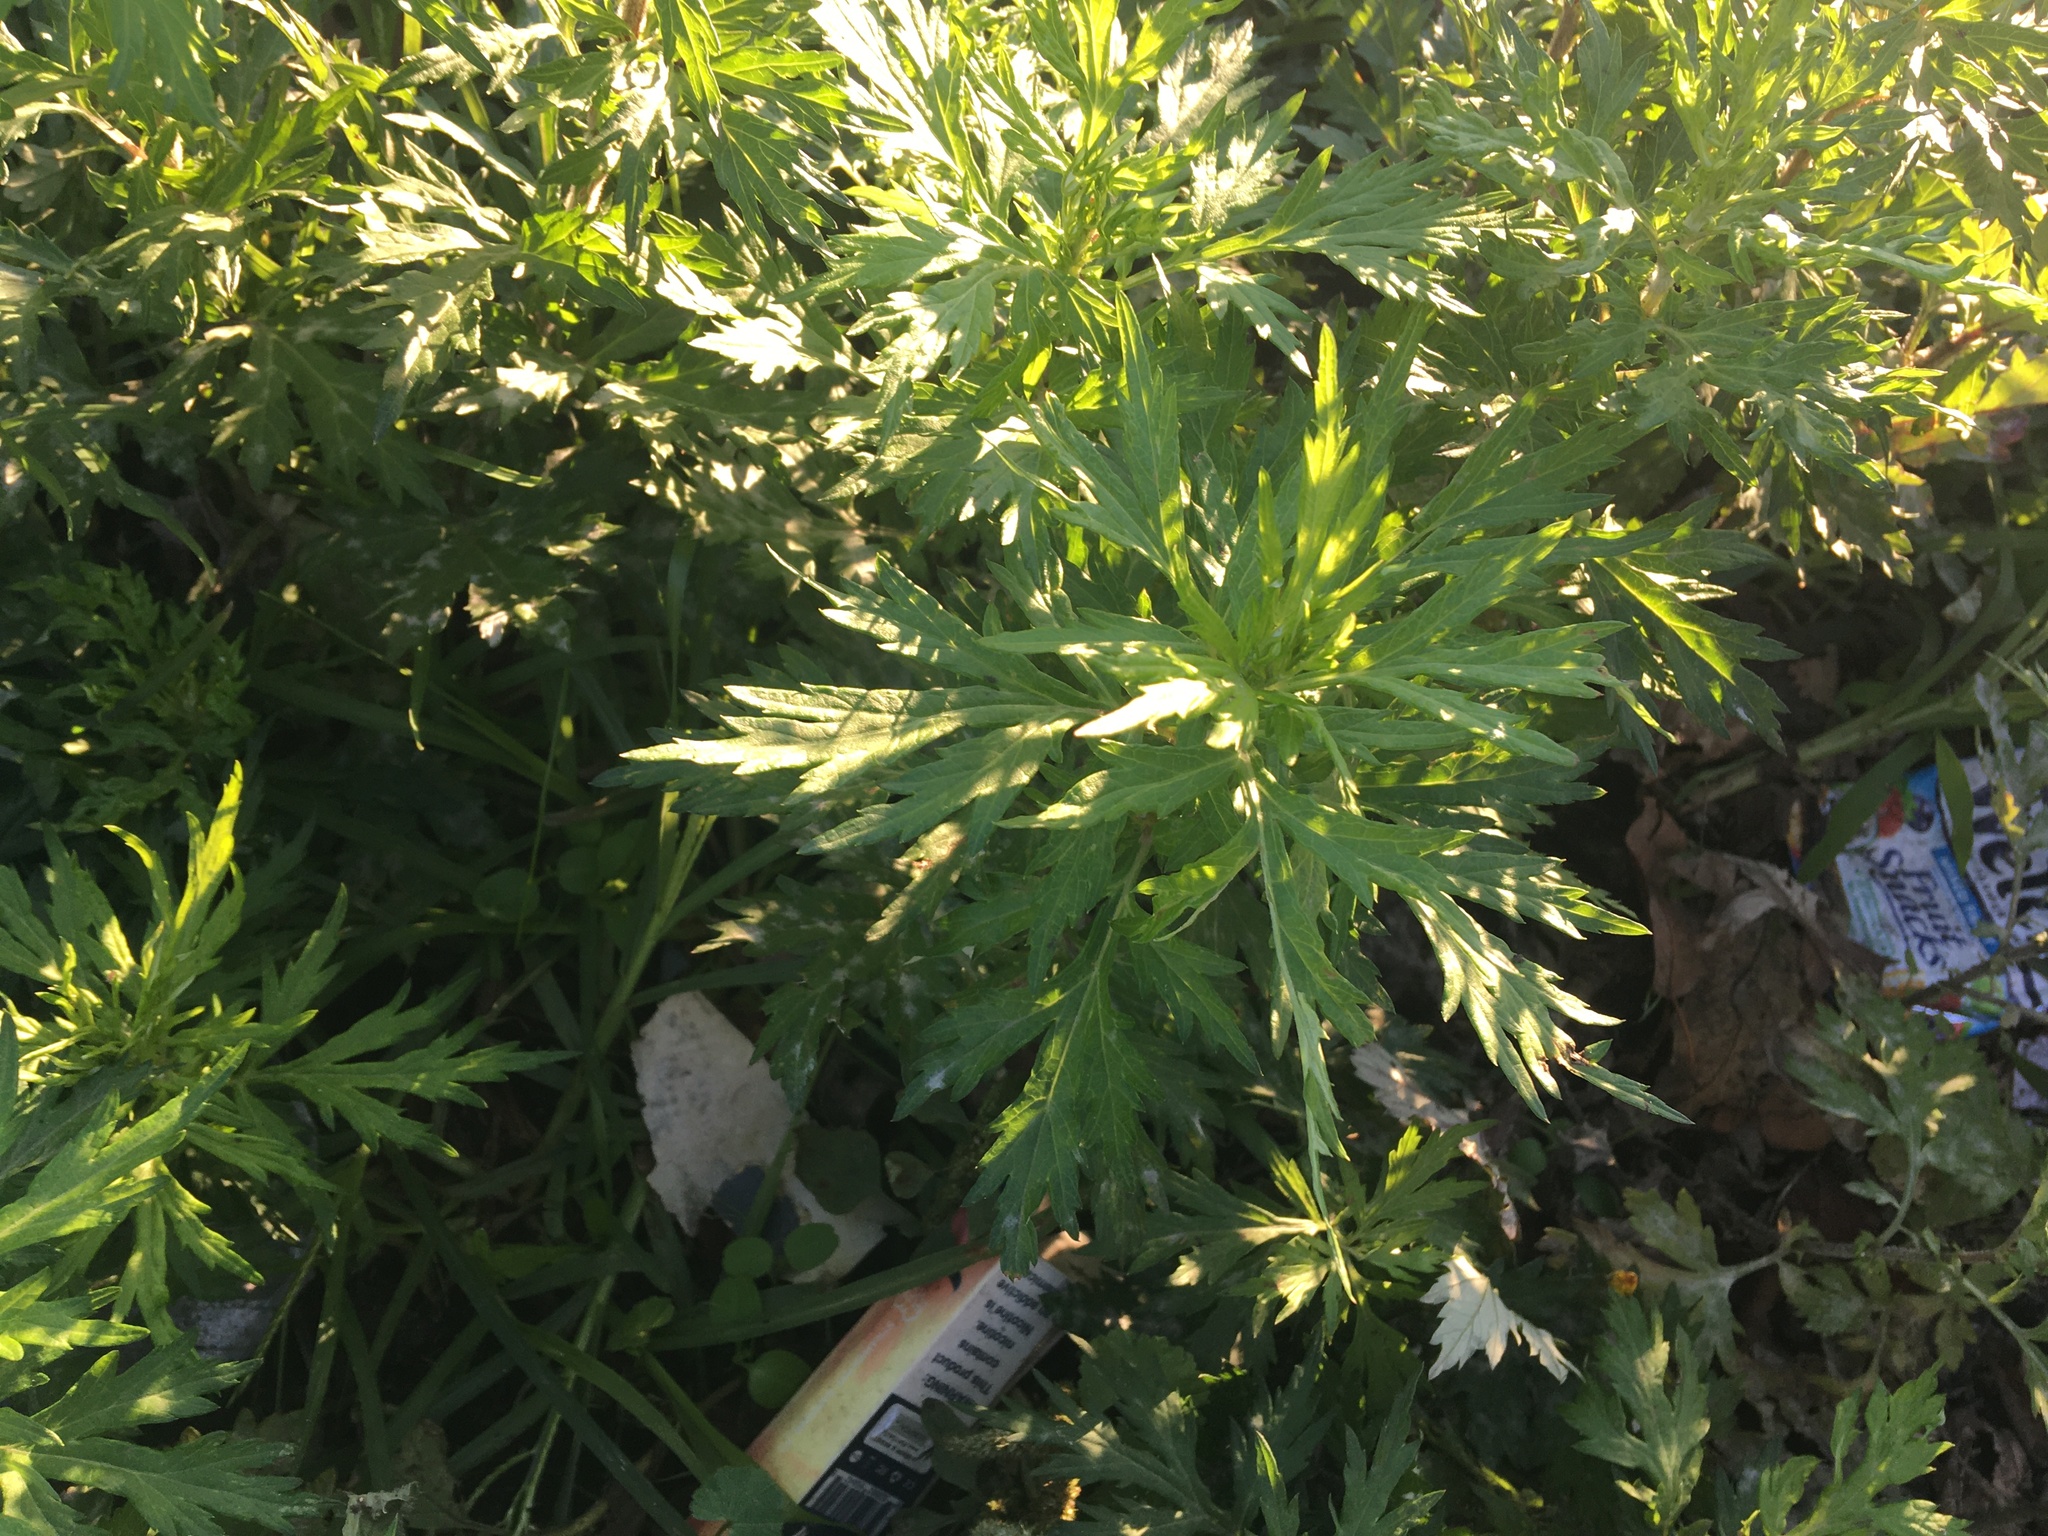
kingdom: Plantae
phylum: Tracheophyta
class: Magnoliopsida
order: Asterales
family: Asteraceae
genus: Artemisia
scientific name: Artemisia vulgaris
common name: Mugwort
